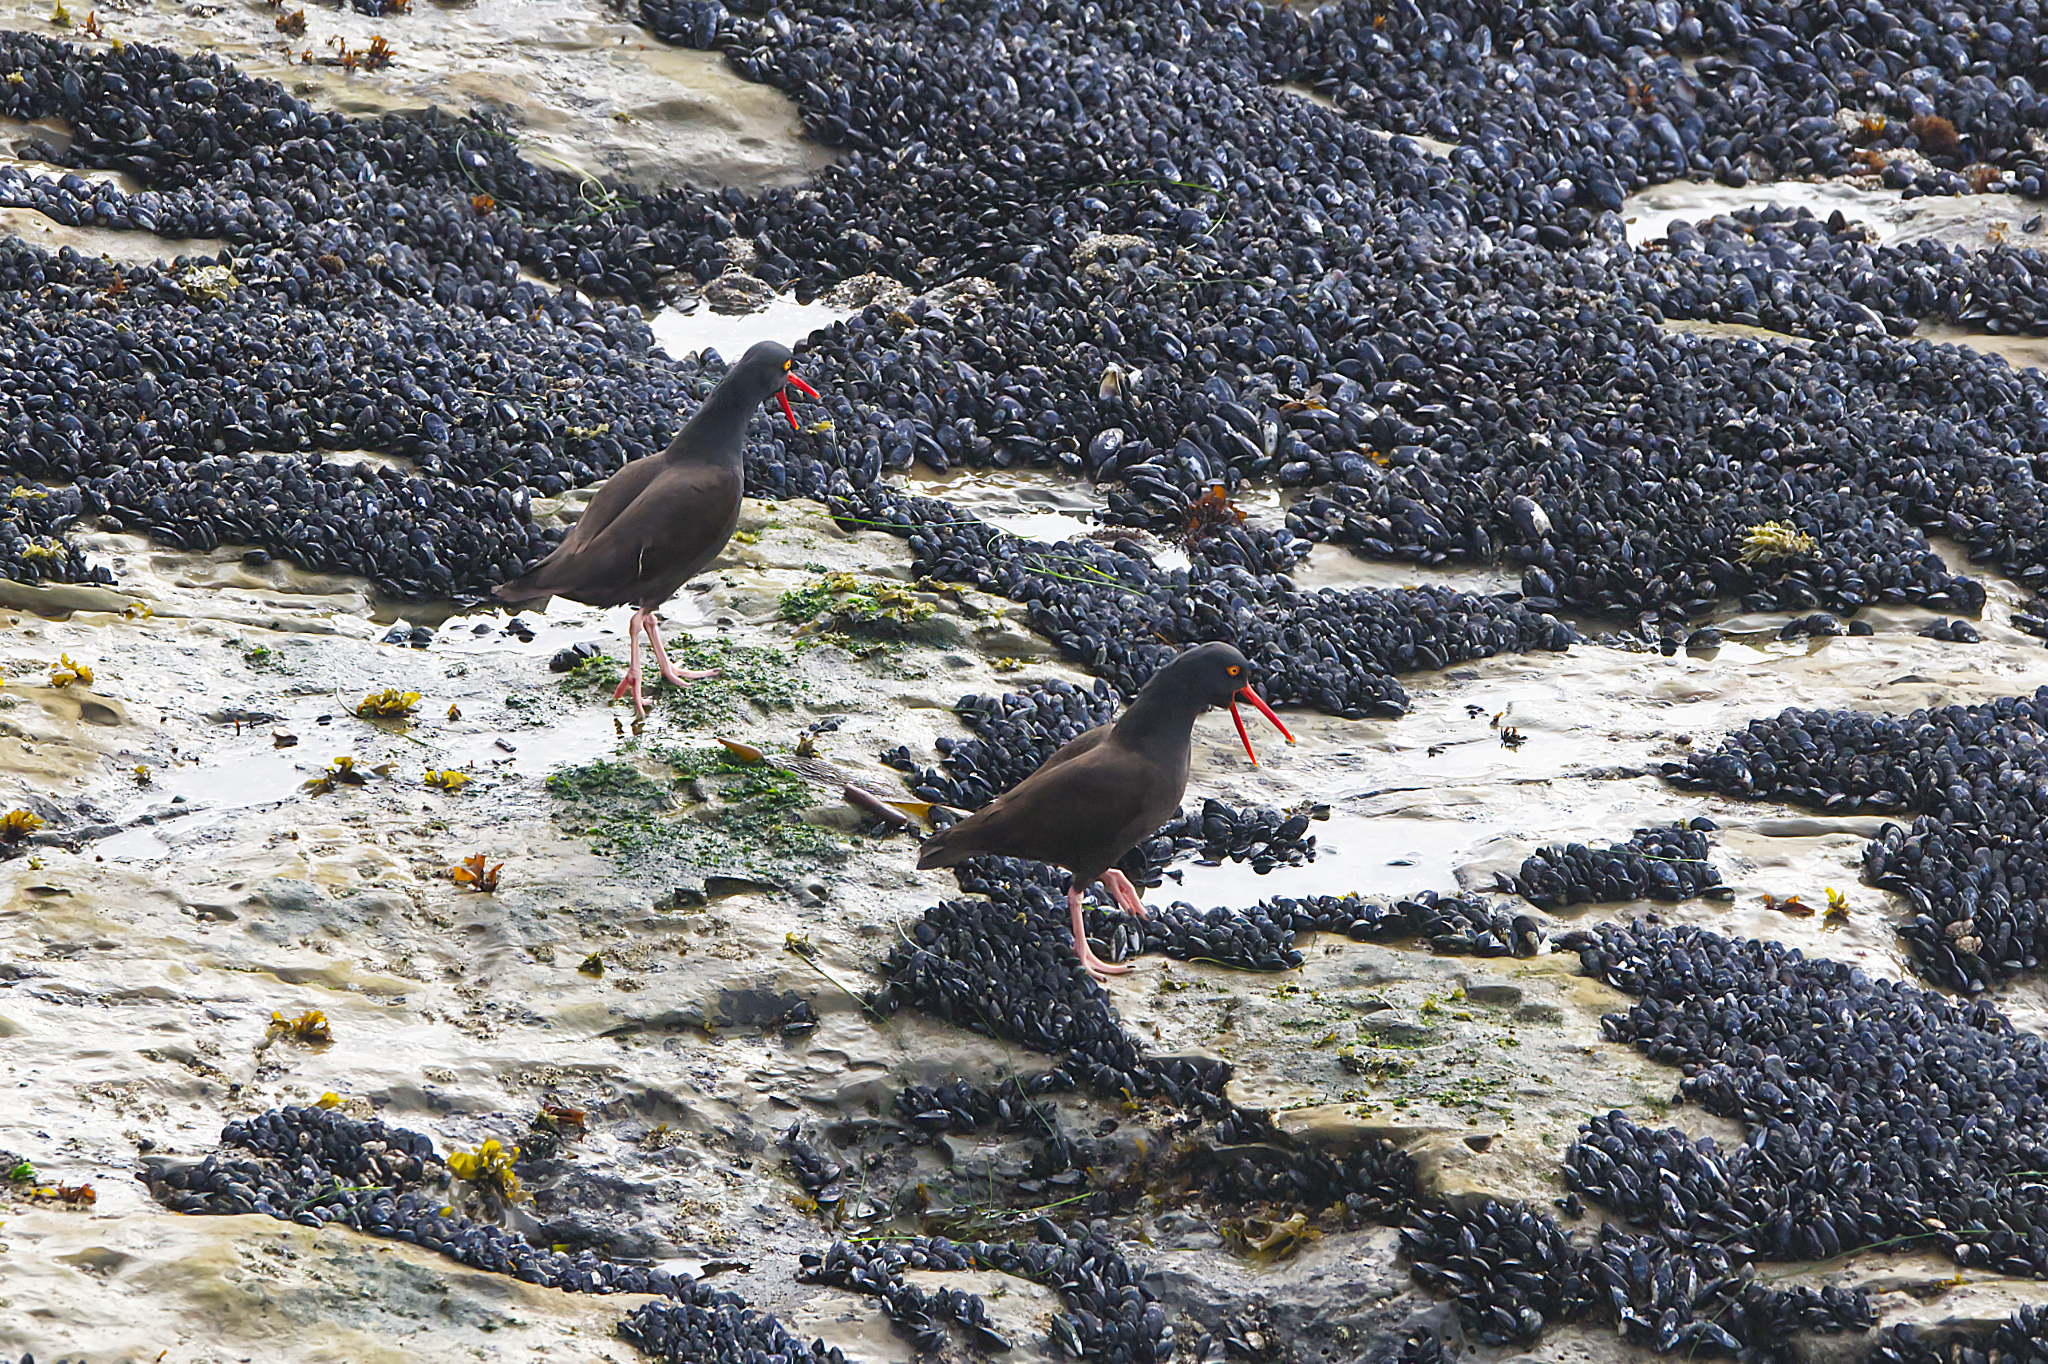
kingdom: Animalia
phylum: Chordata
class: Aves
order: Charadriiformes
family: Haematopodidae
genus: Haematopus
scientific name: Haematopus bachmani
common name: Black oystercatcher
